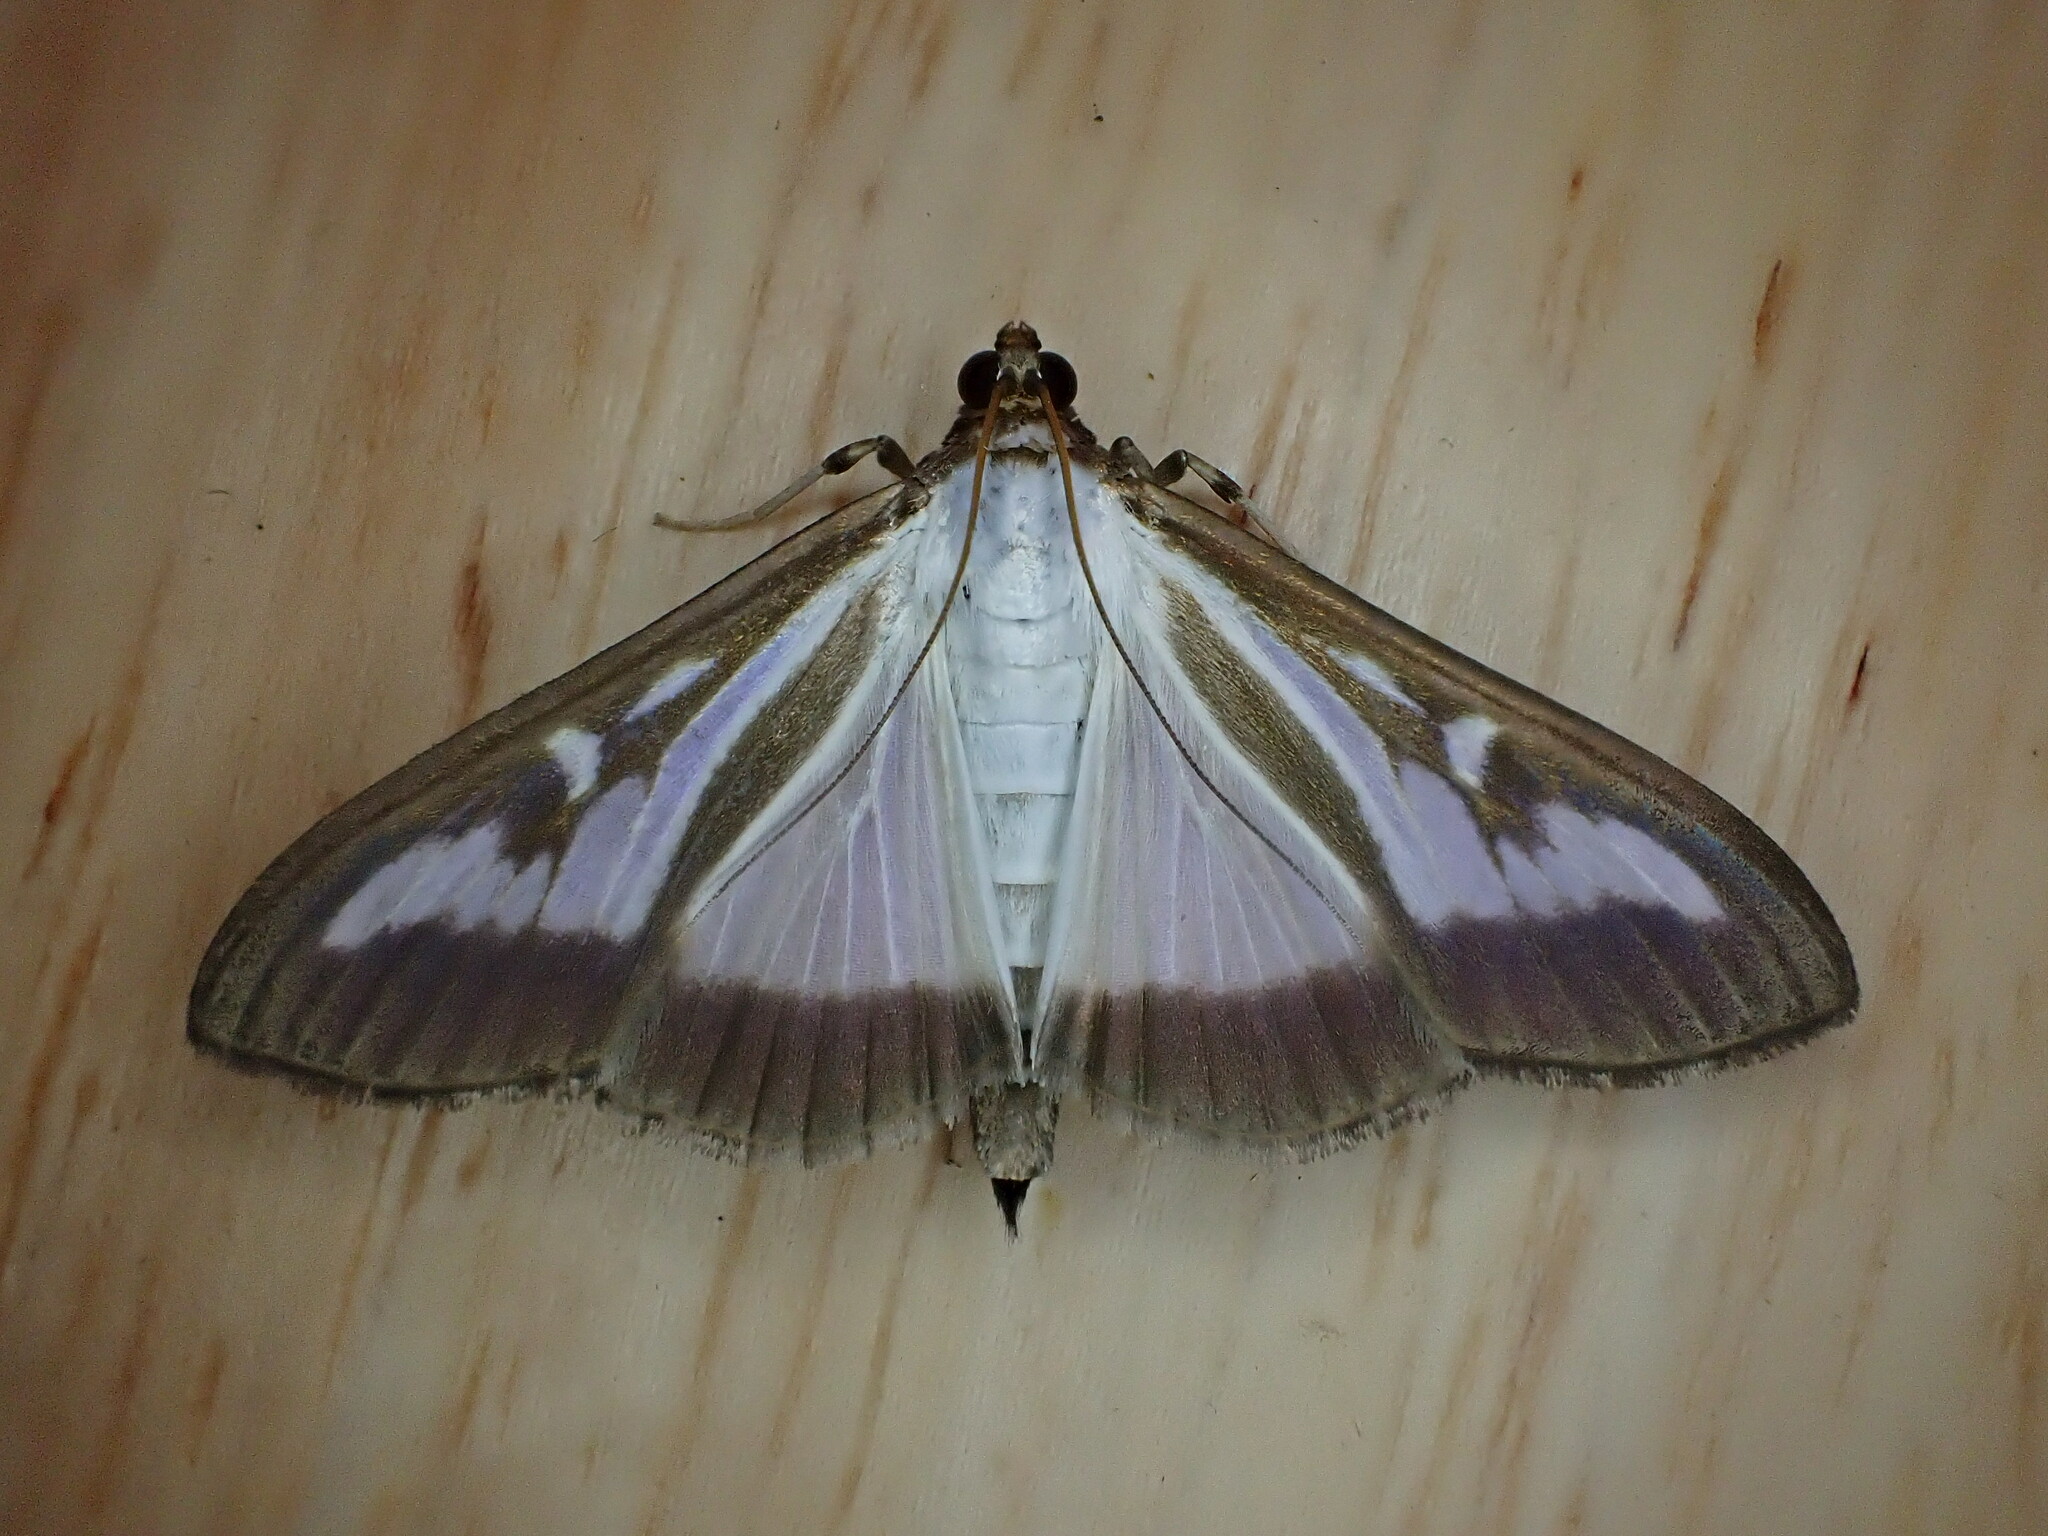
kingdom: Animalia
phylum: Arthropoda
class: Insecta
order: Lepidoptera
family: Crambidae
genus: Cydalima
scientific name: Cydalima perspectalis
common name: Box tree moth
